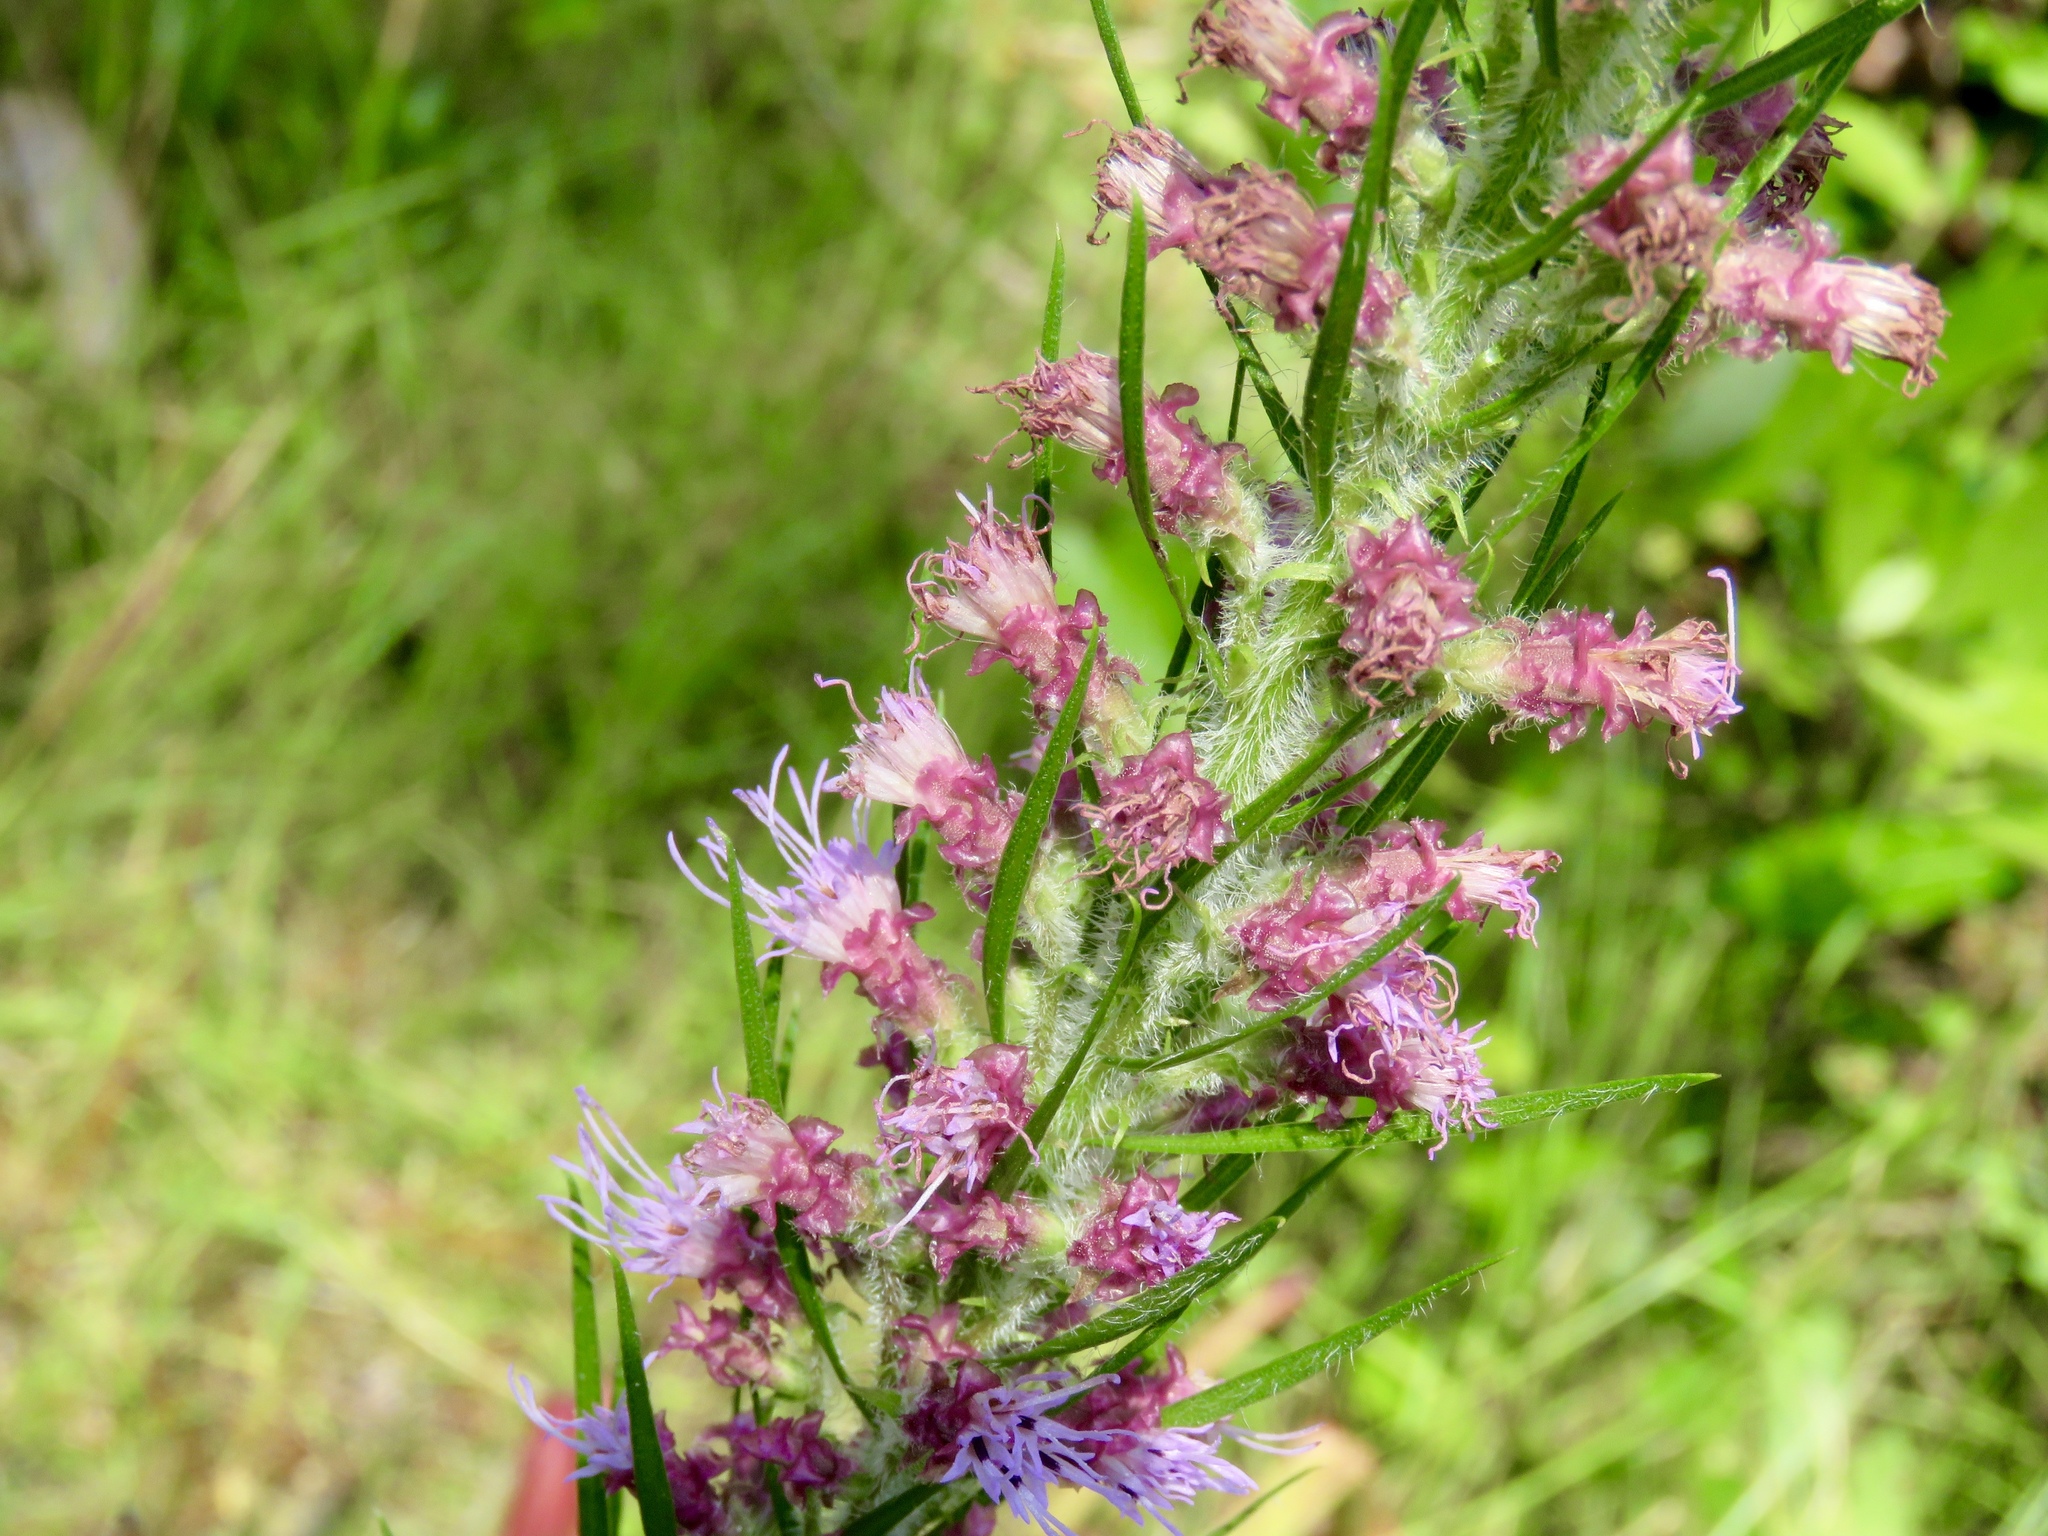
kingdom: Plantae
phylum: Tracheophyta
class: Magnoliopsida
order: Asterales
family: Asteraceae
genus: Liatris
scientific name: Liatris pycnostachya
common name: Cattail gayfeather
